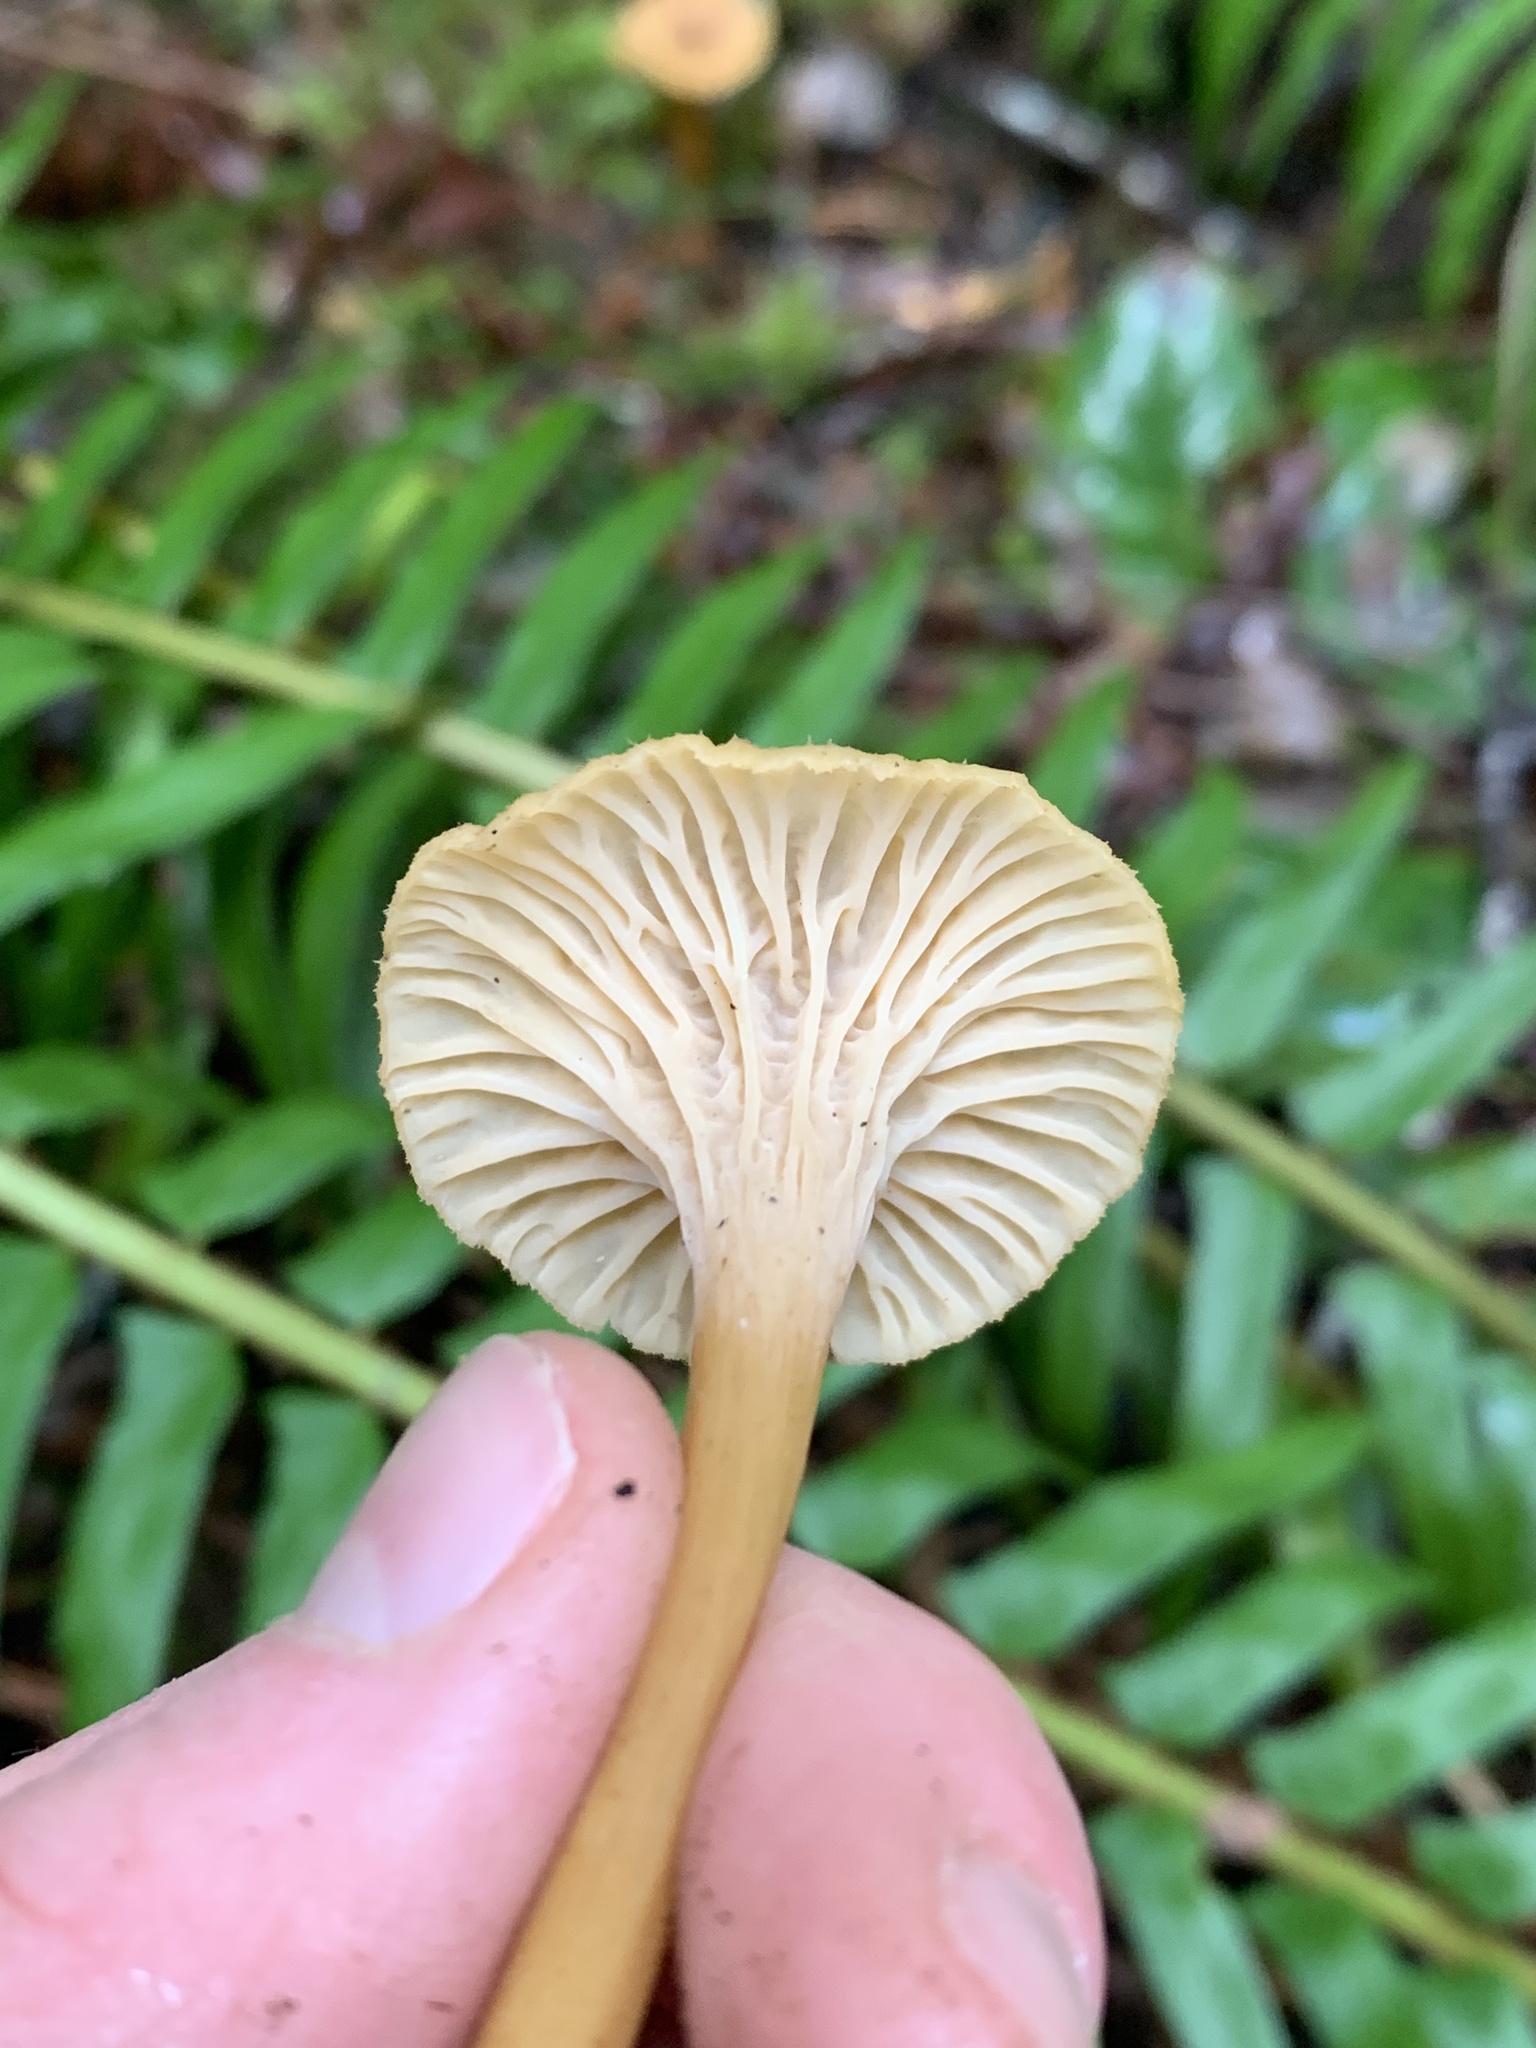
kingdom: Fungi
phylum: Basidiomycota
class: Agaricomycetes
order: Cantharellales
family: Hydnaceae
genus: Craterellus
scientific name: Craterellus tubaeformis
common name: Yellowfoot
